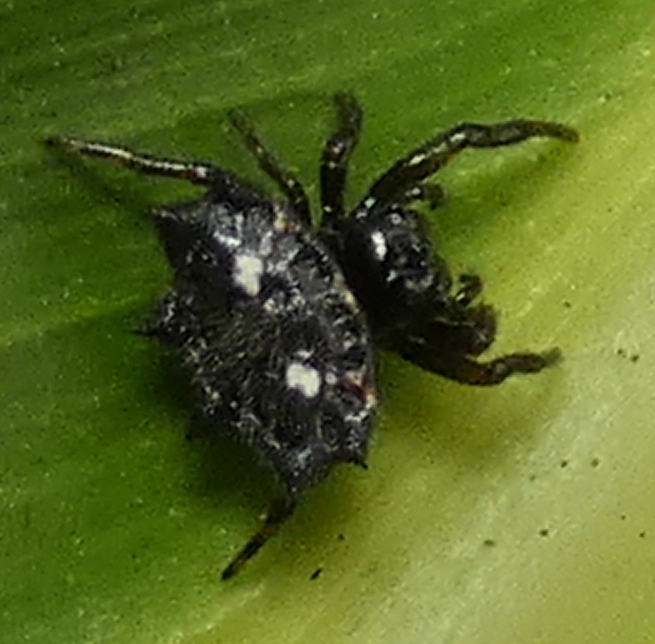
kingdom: Animalia
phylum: Arthropoda
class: Arachnida
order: Araneae
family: Araneidae
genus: Gasteracantha
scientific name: Gasteracantha cancriformis
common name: Orb weavers
